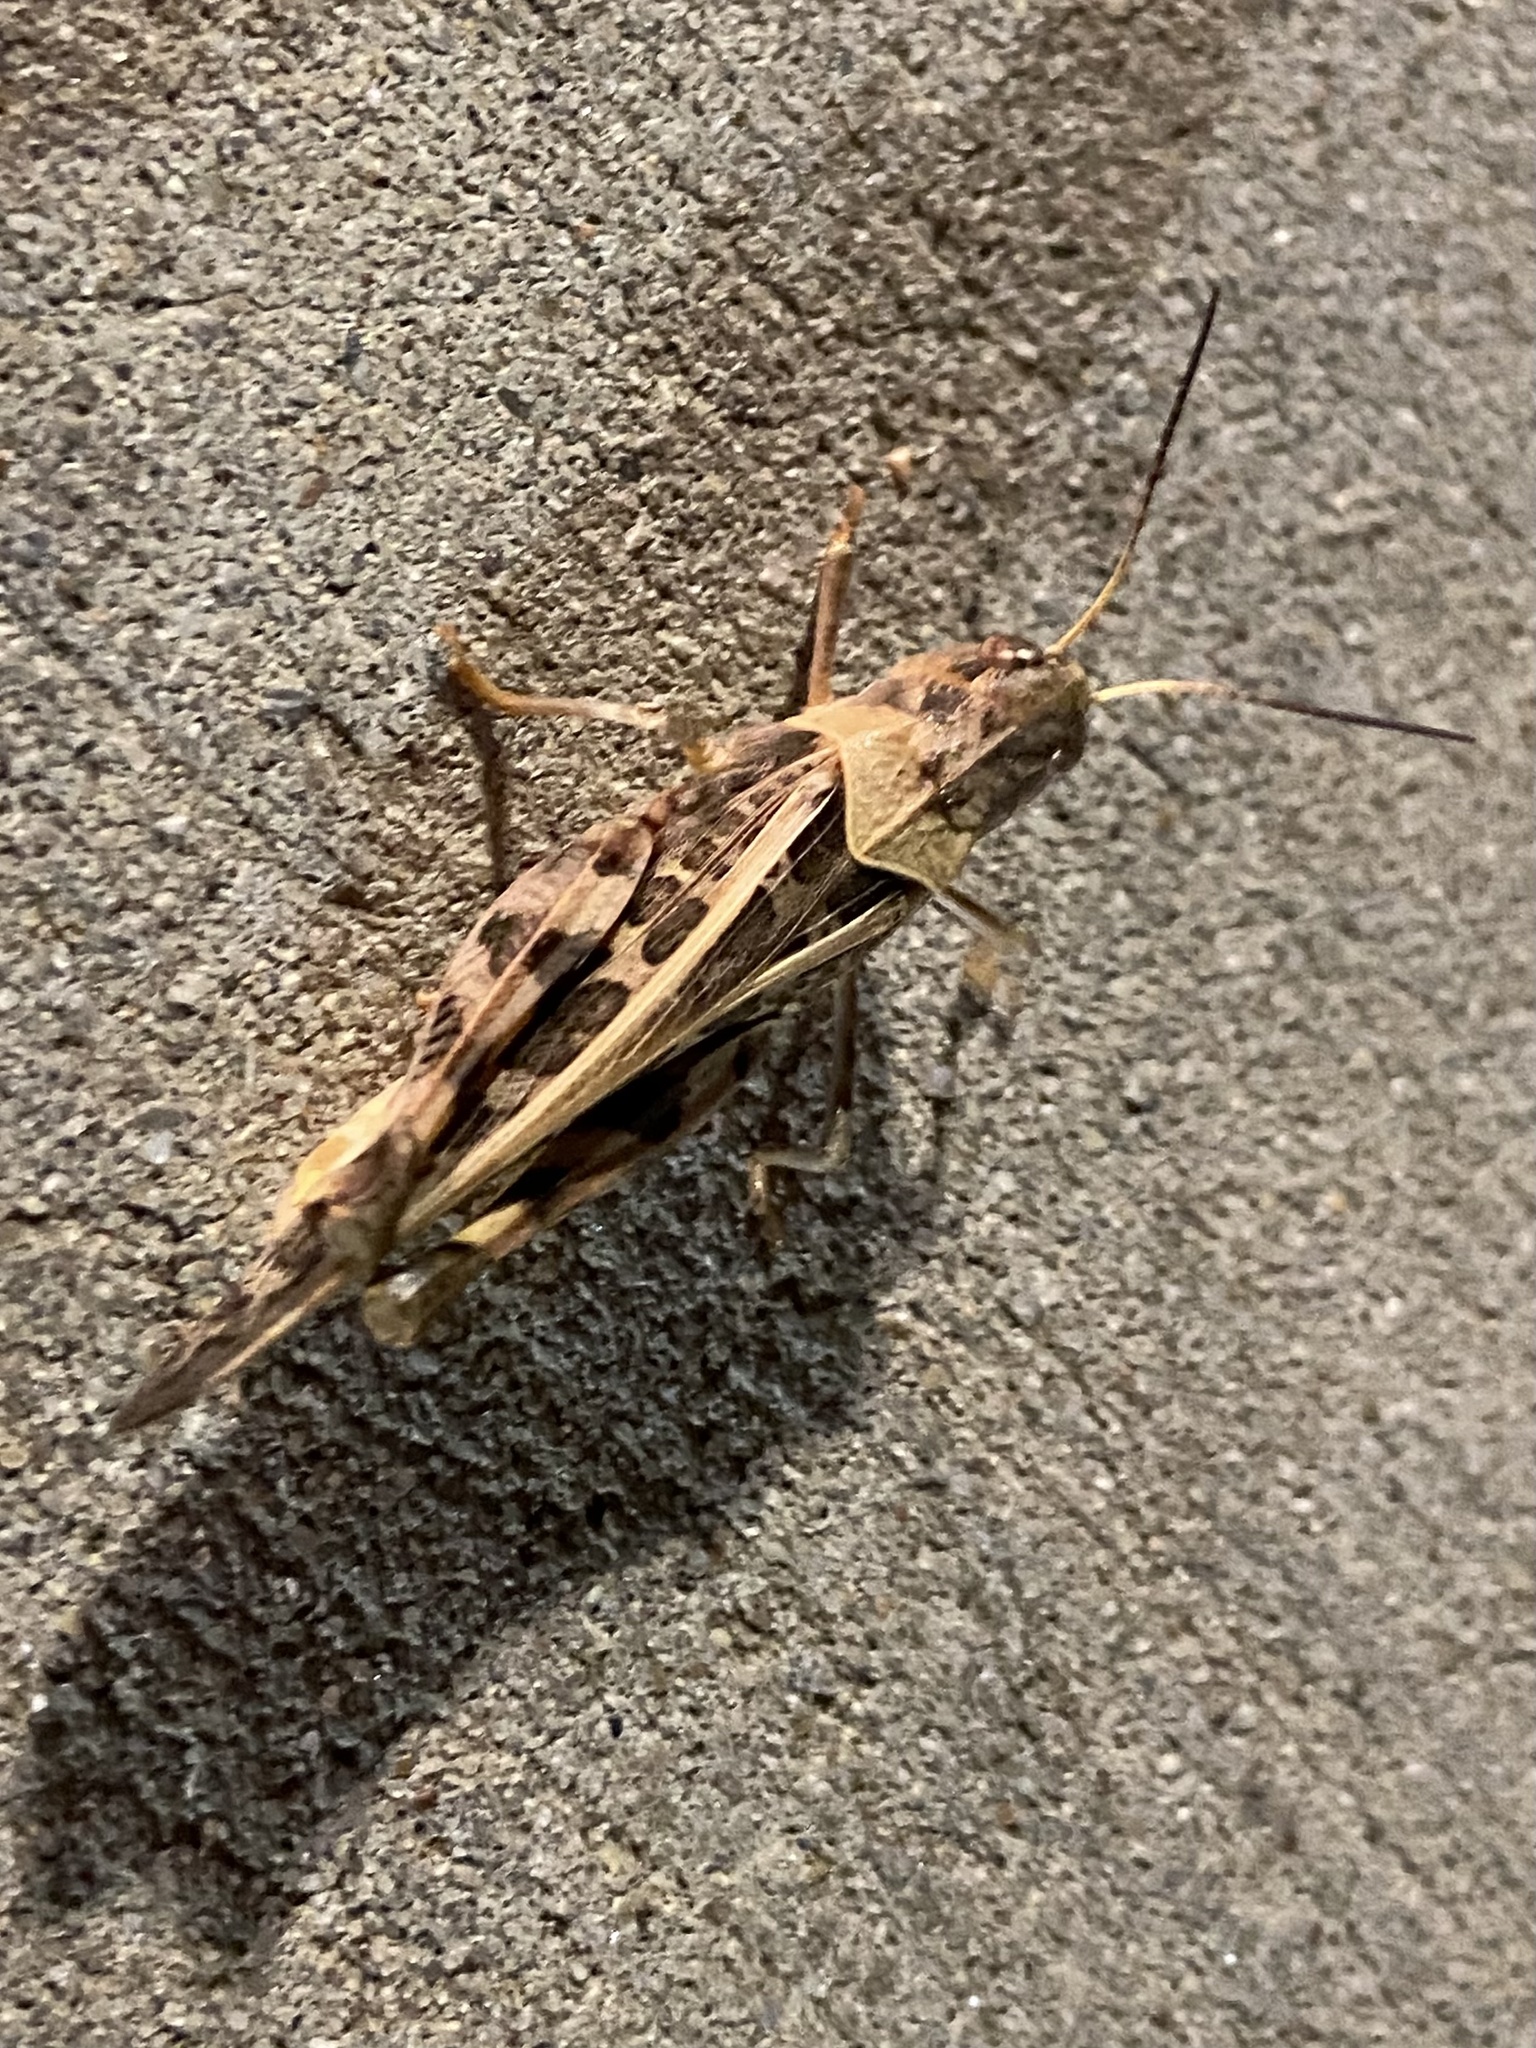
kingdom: Animalia
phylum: Arthropoda
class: Insecta
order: Orthoptera
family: Acrididae
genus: Hippiscus
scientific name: Hippiscus ocelote
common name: Wrinkled grasshopper
